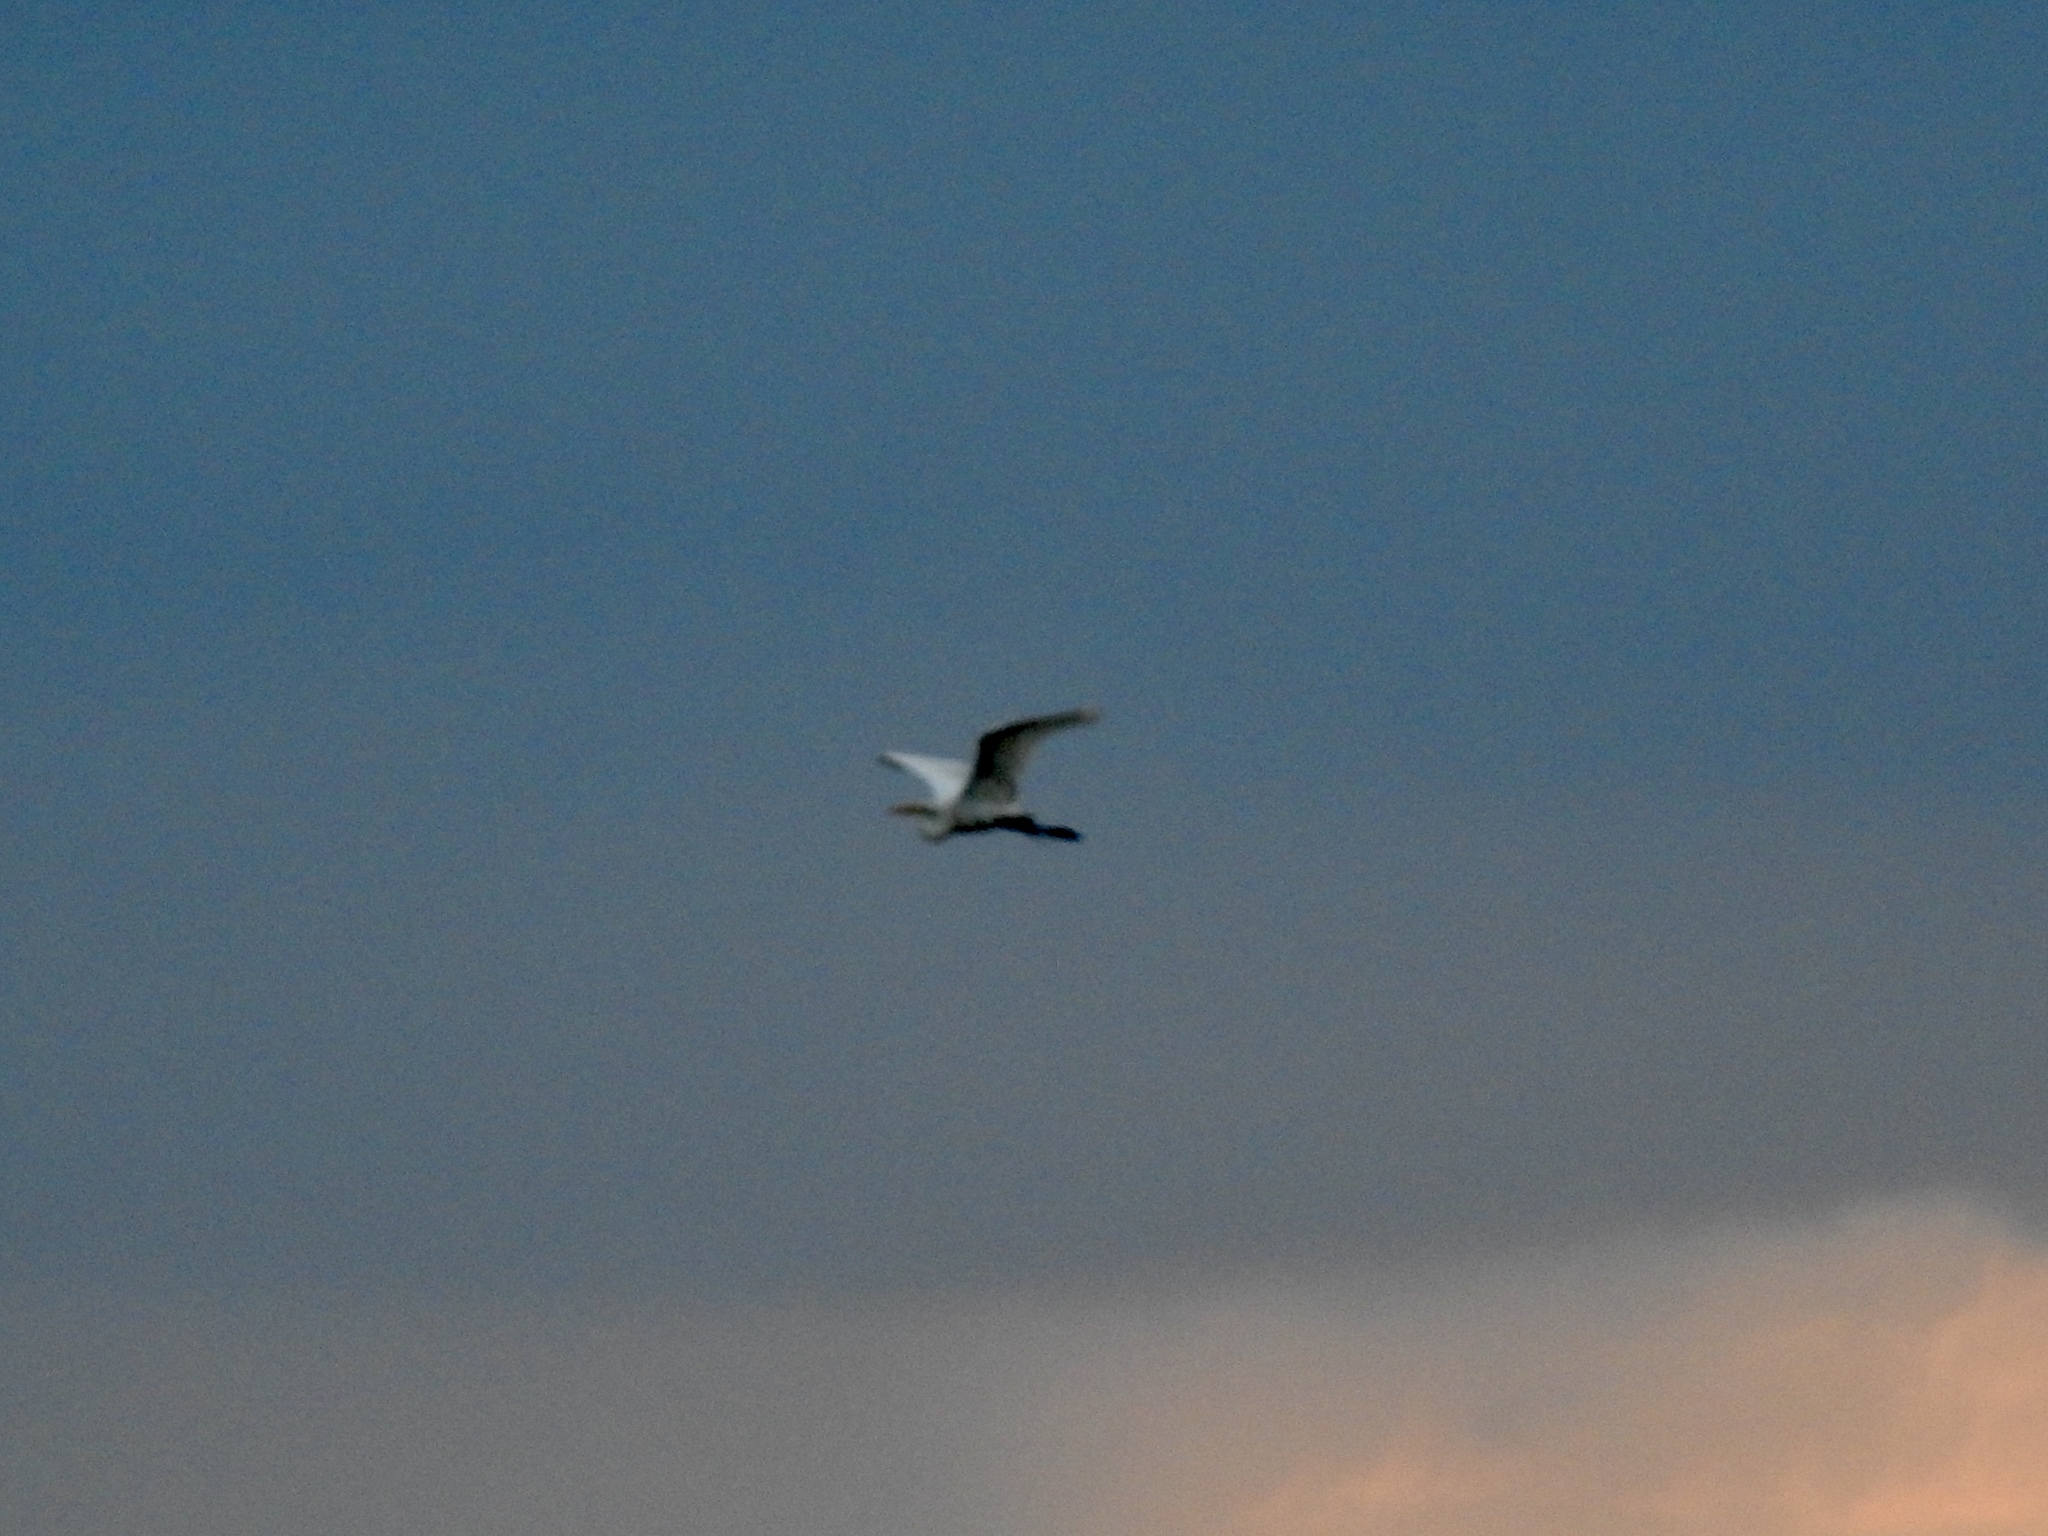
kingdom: Animalia
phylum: Chordata
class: Aves
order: Pelecaniformes
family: Ardeidae
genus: Ardea
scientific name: Ardea alba
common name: Great egret
